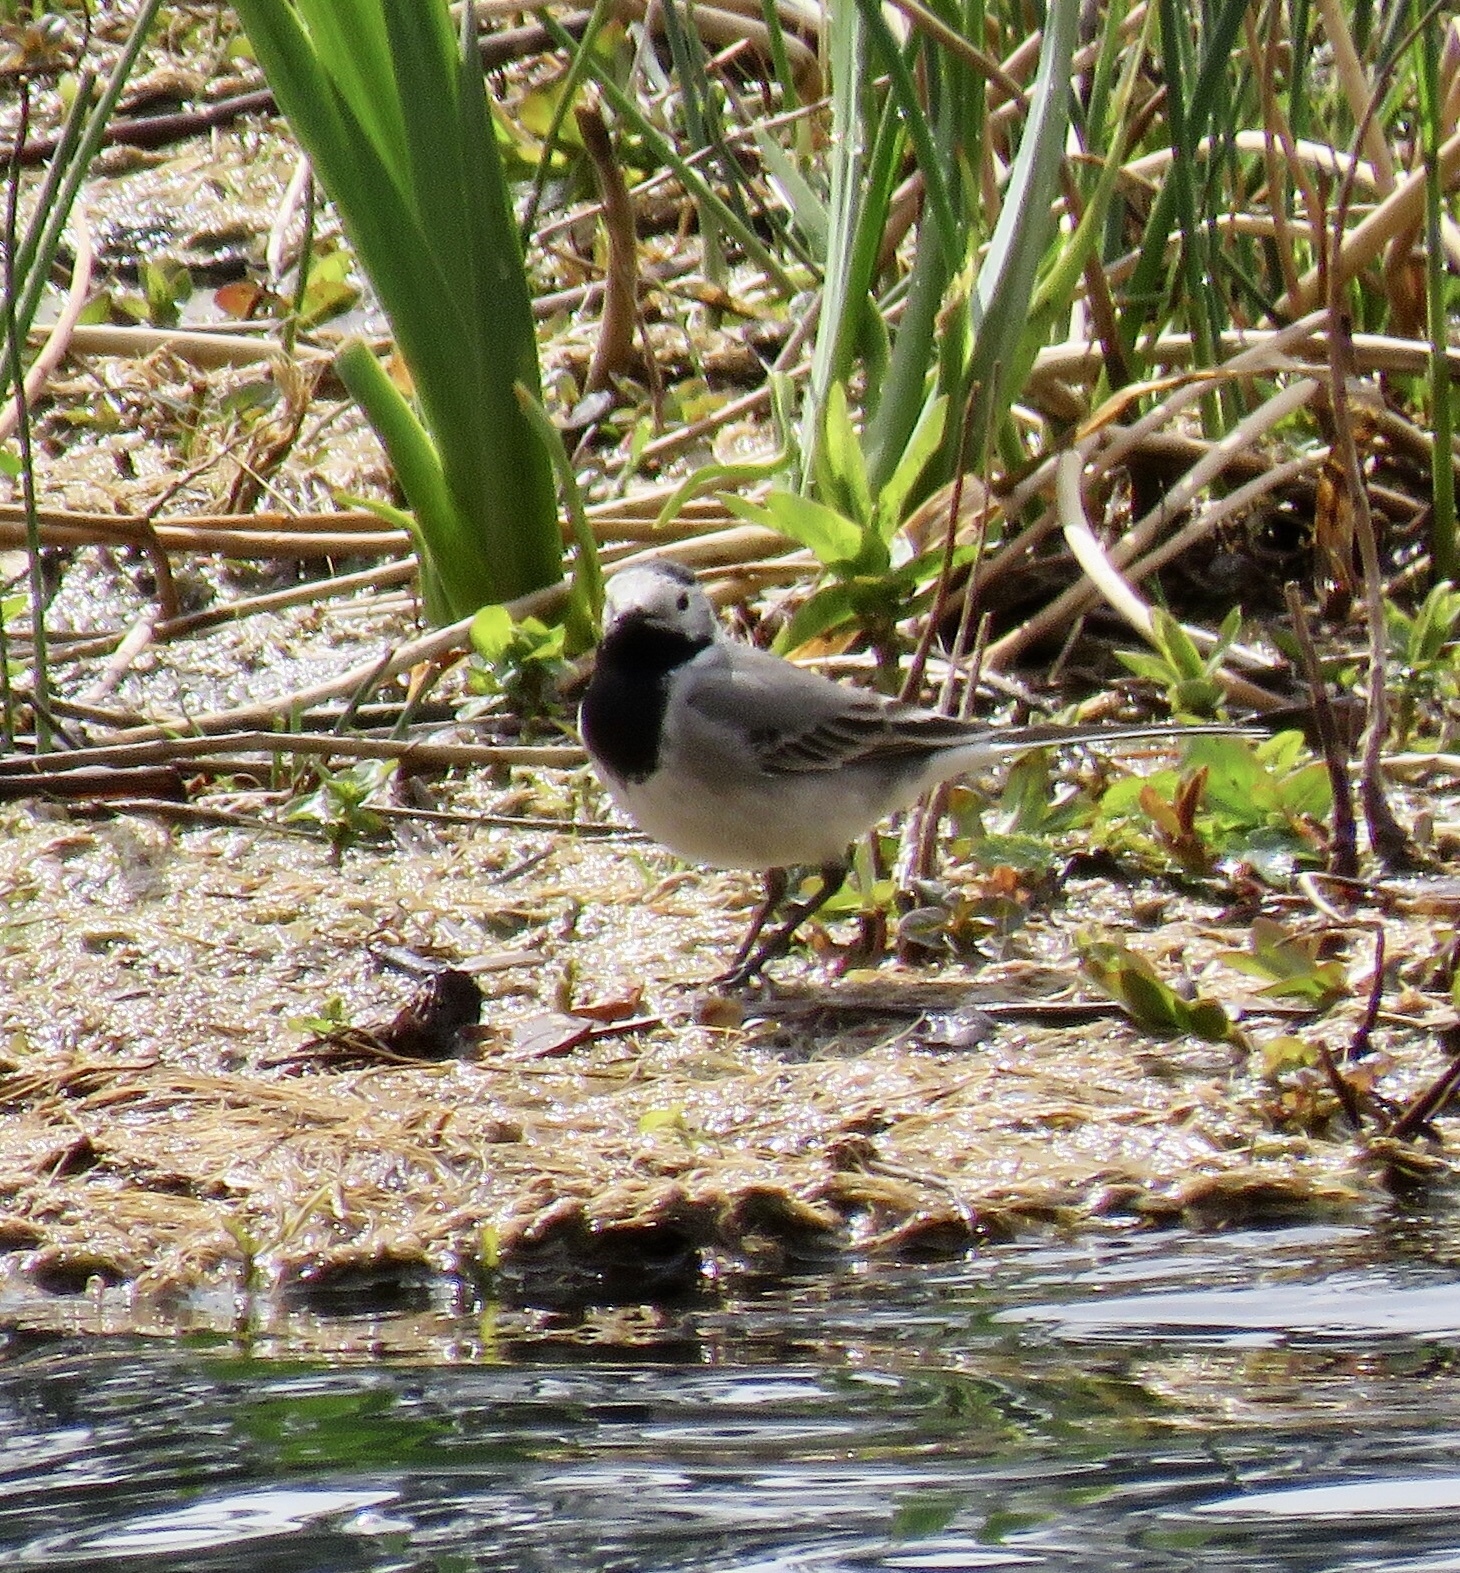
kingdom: Animalia
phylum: Chordata
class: Aves
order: Passeriformes
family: Motacillidae
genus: Motacilla
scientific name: Motacilla alba
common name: White wagtail
